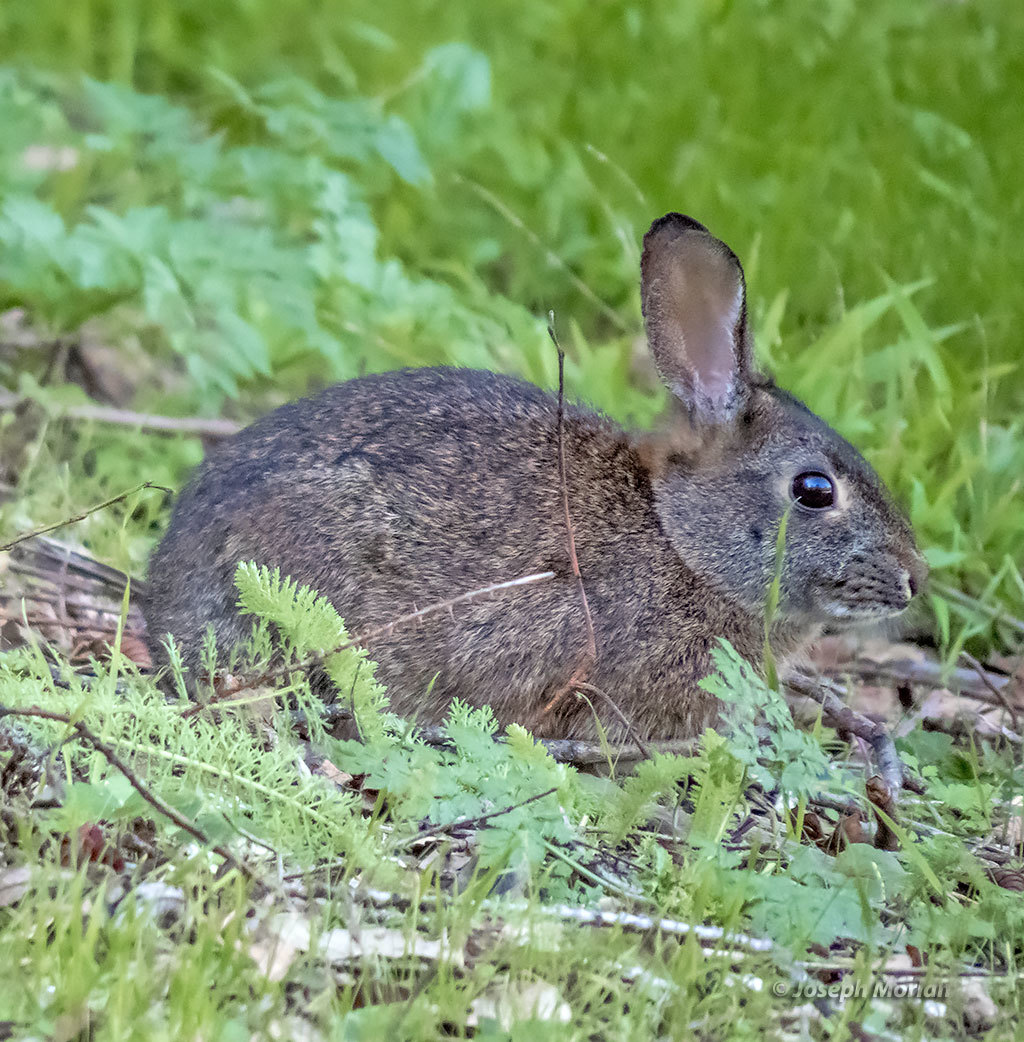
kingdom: Animalia
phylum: Chordata
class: Mammalia
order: Lagomorpha
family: Leporidae
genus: Sylvilagus
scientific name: Sylvilagus bachmani
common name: Brush rabbit
